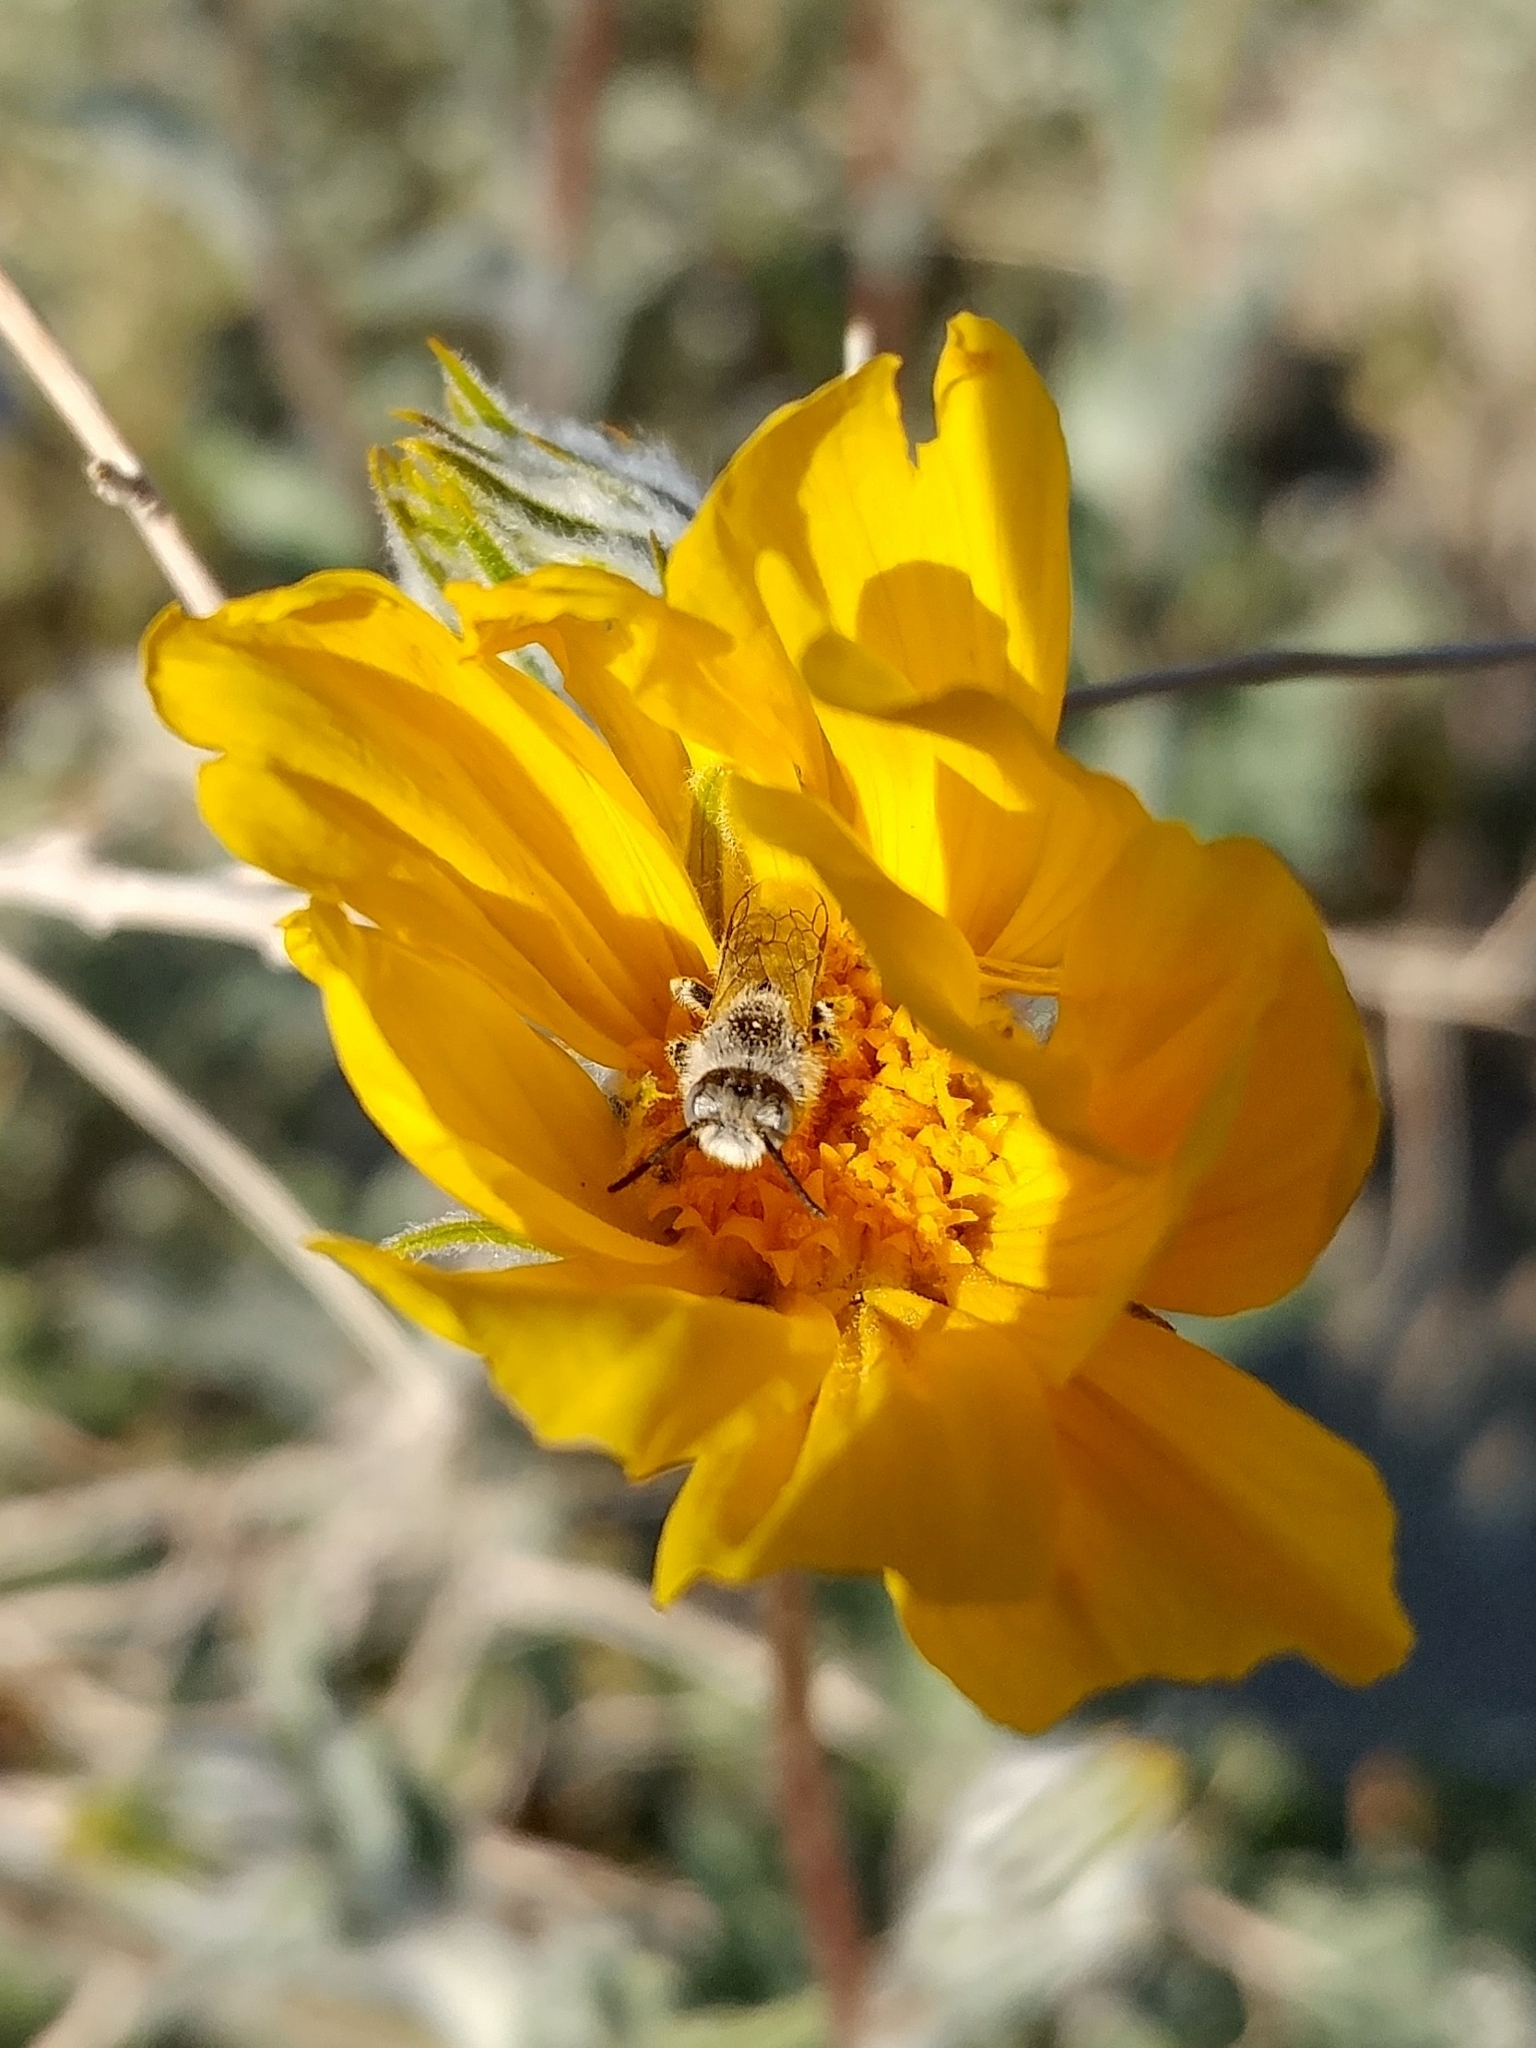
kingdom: Animalia
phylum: Arthropoda
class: Insecta
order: Hymenoptera
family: Melittidae
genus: Hesperapis
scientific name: Hesperapis
